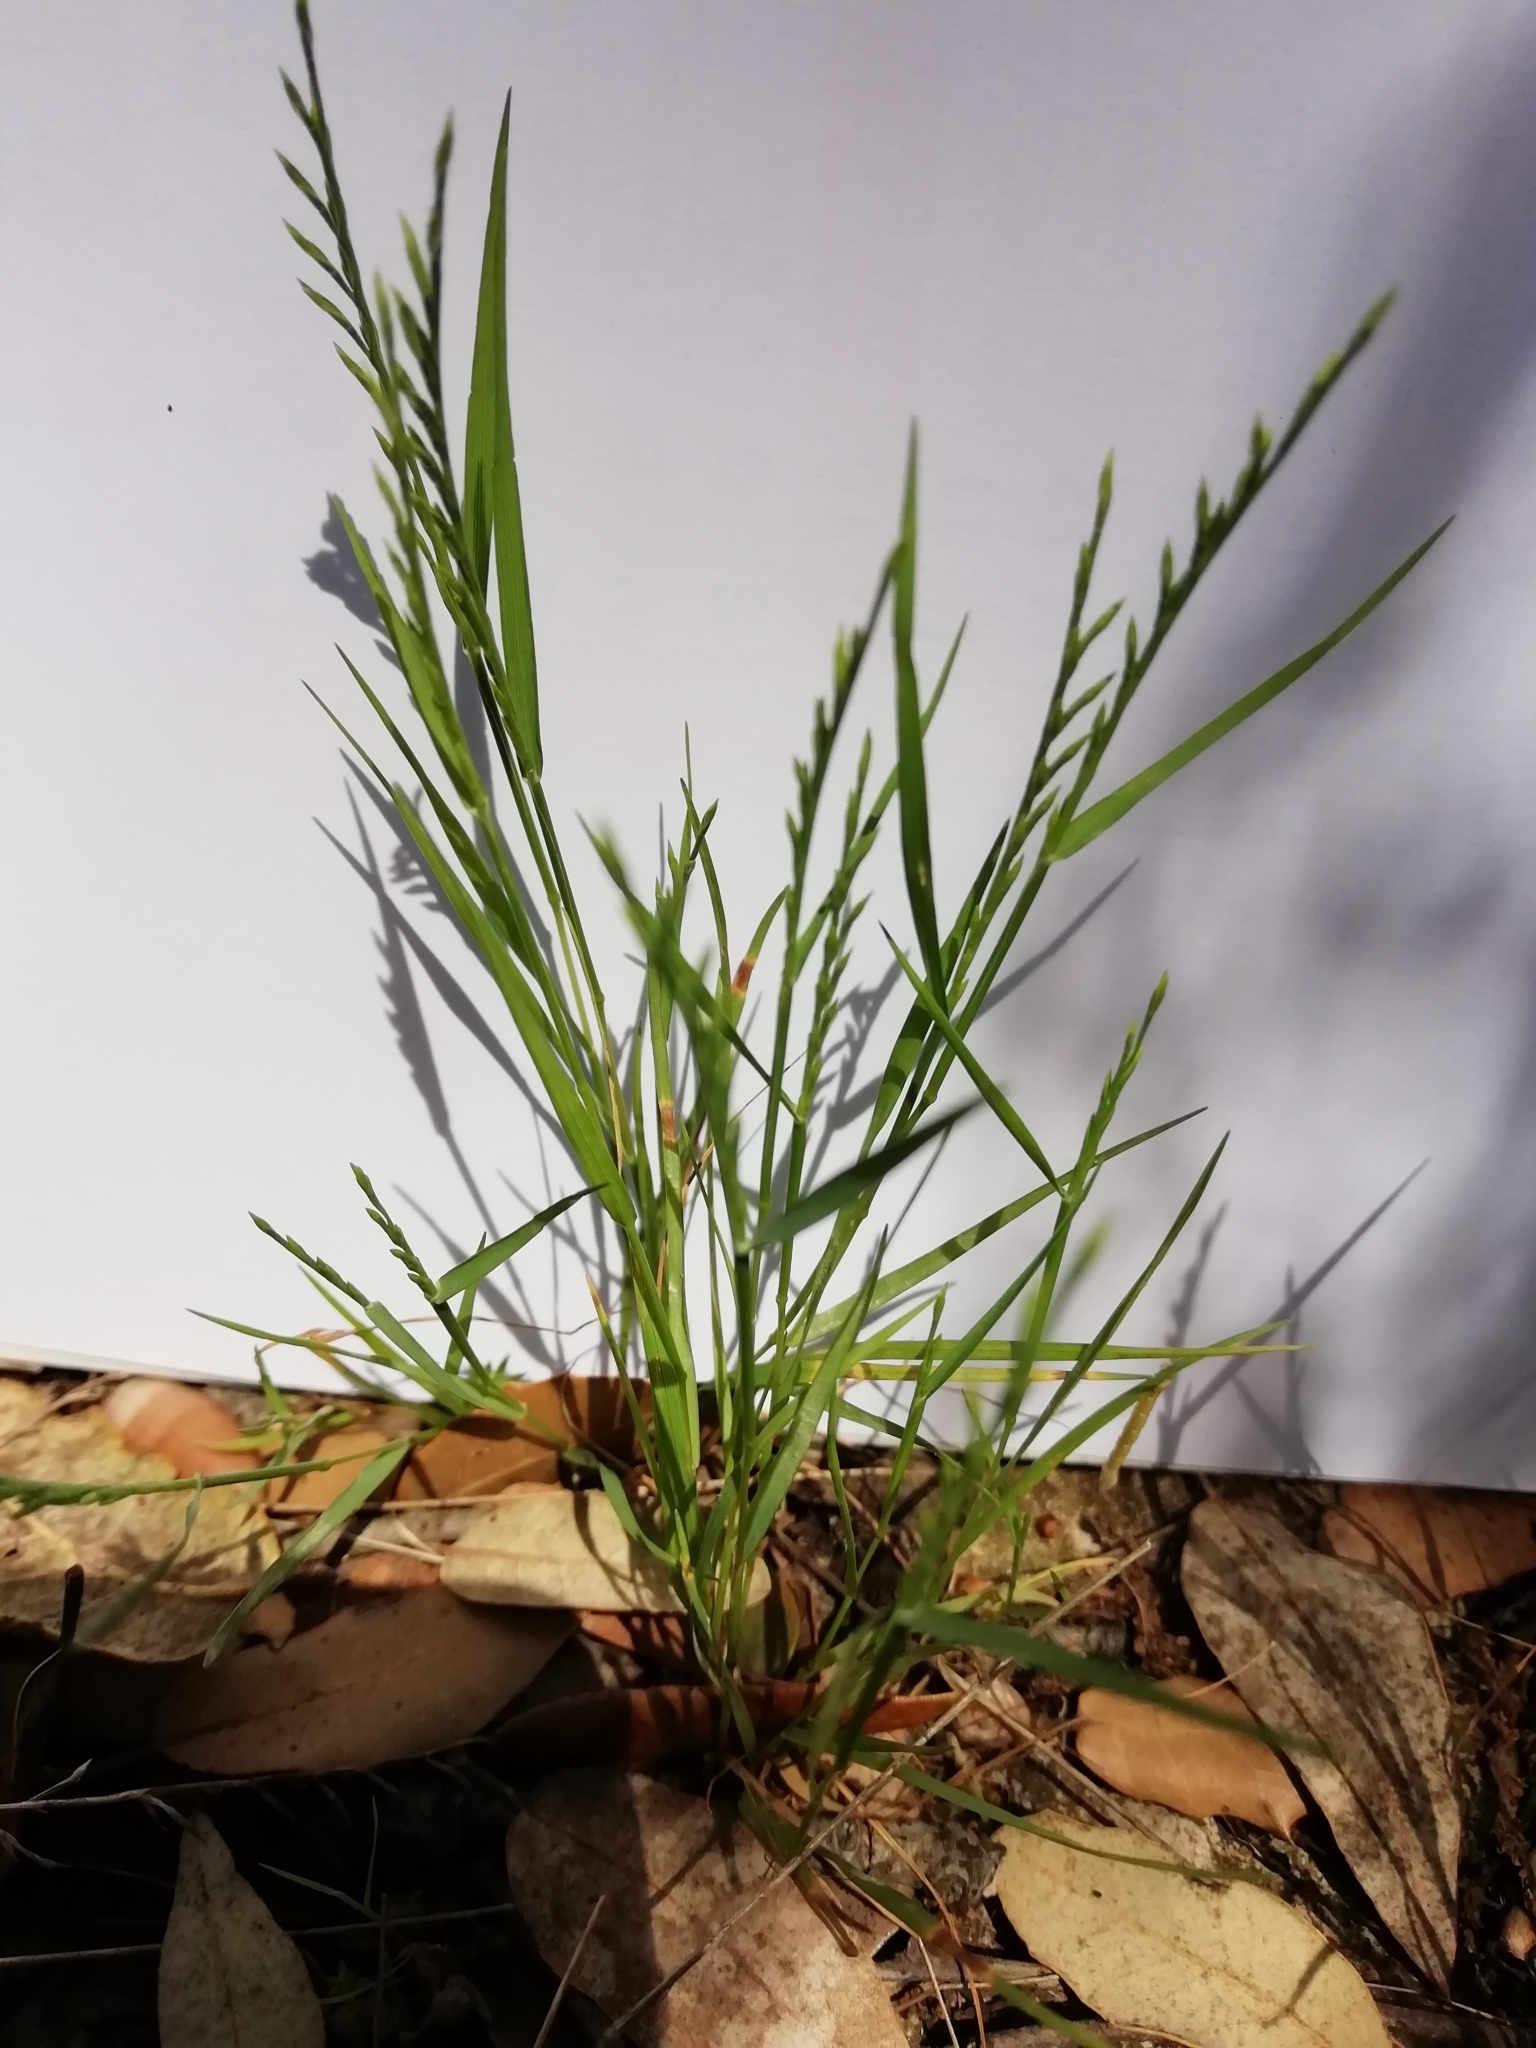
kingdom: Plantae
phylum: Tracheophyta
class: Liliopsida
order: Poales
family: Poaceae
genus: Catapodium
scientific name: Catapodium rigidum
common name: Fern-grass
